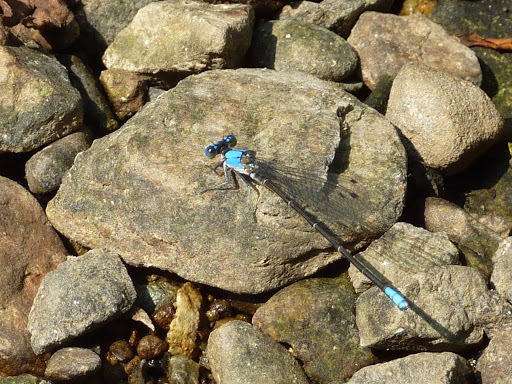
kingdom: Animalia
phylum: Arthropoda
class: Insecta
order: Odonata
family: Coenagrionidae
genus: Argia
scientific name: Argia apicalis
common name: Blue-fronted dancer
